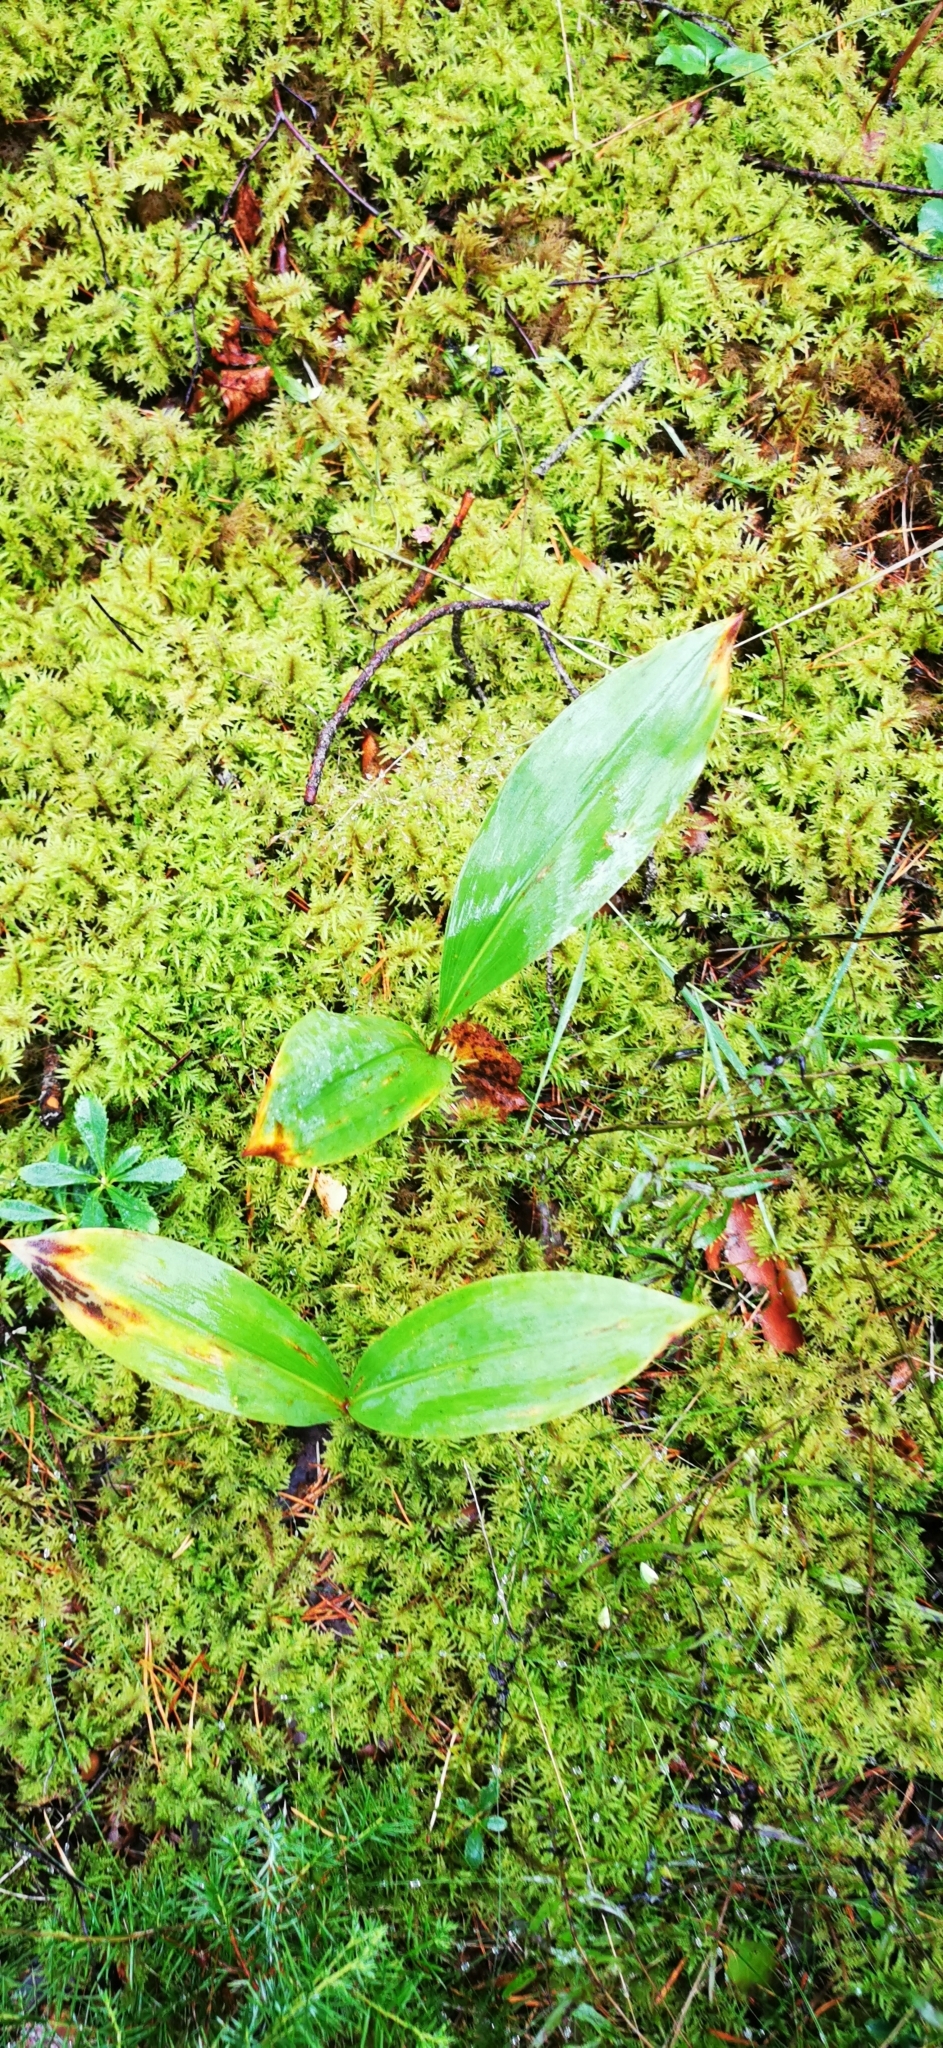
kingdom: Plantae
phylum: Tracheophyta
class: Liliopsida
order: Asparagales
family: Asparagaceae
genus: Convallaria
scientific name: Convallaria majalis
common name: Lily-of-the-valley
